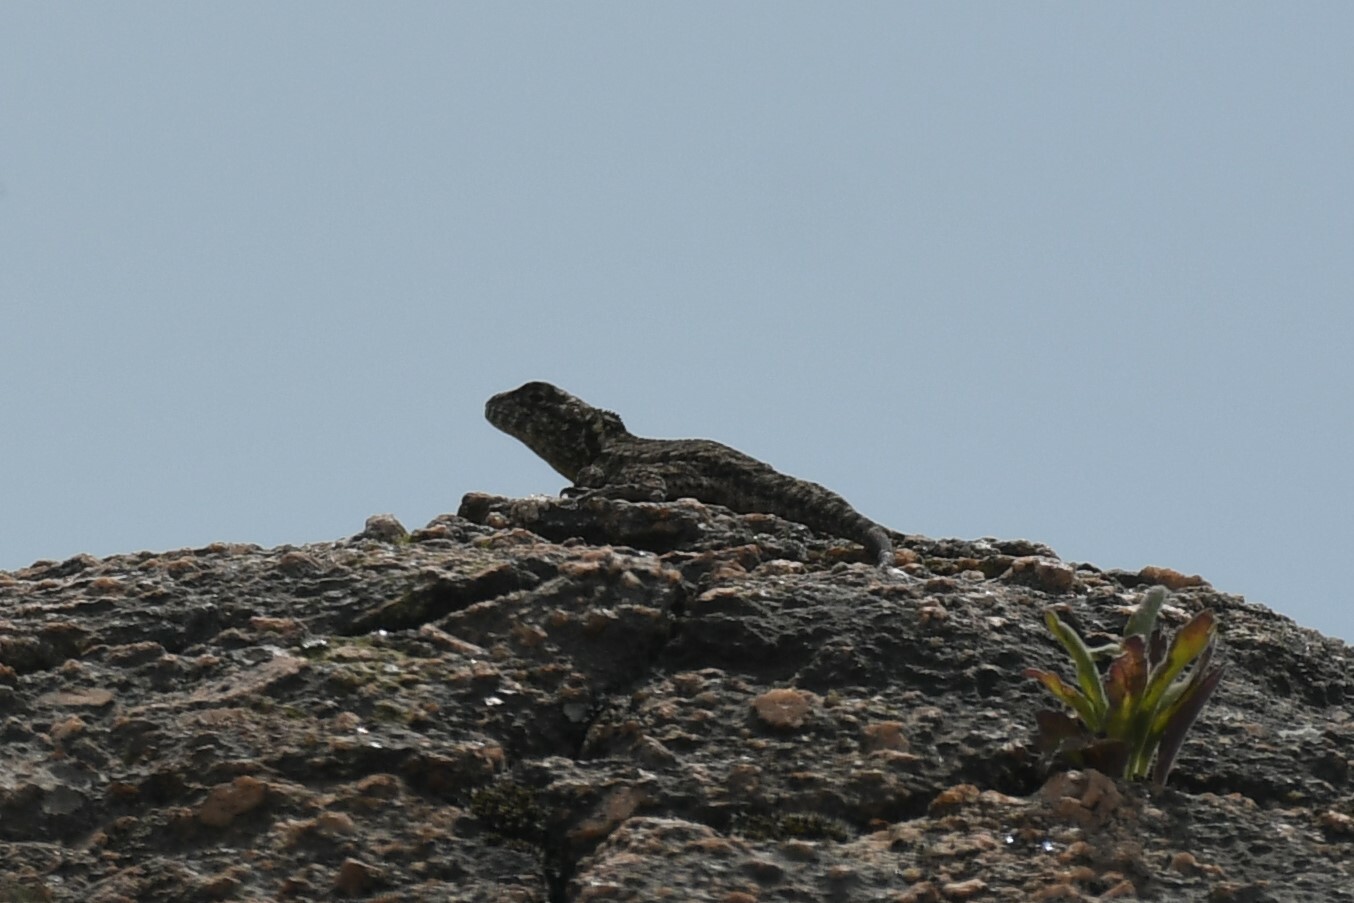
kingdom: Animalia
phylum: Chordata
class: Squamata
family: Tropiduridae
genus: Tropidurus
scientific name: Tropidurus spinulosus
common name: Spiny lava lizard
